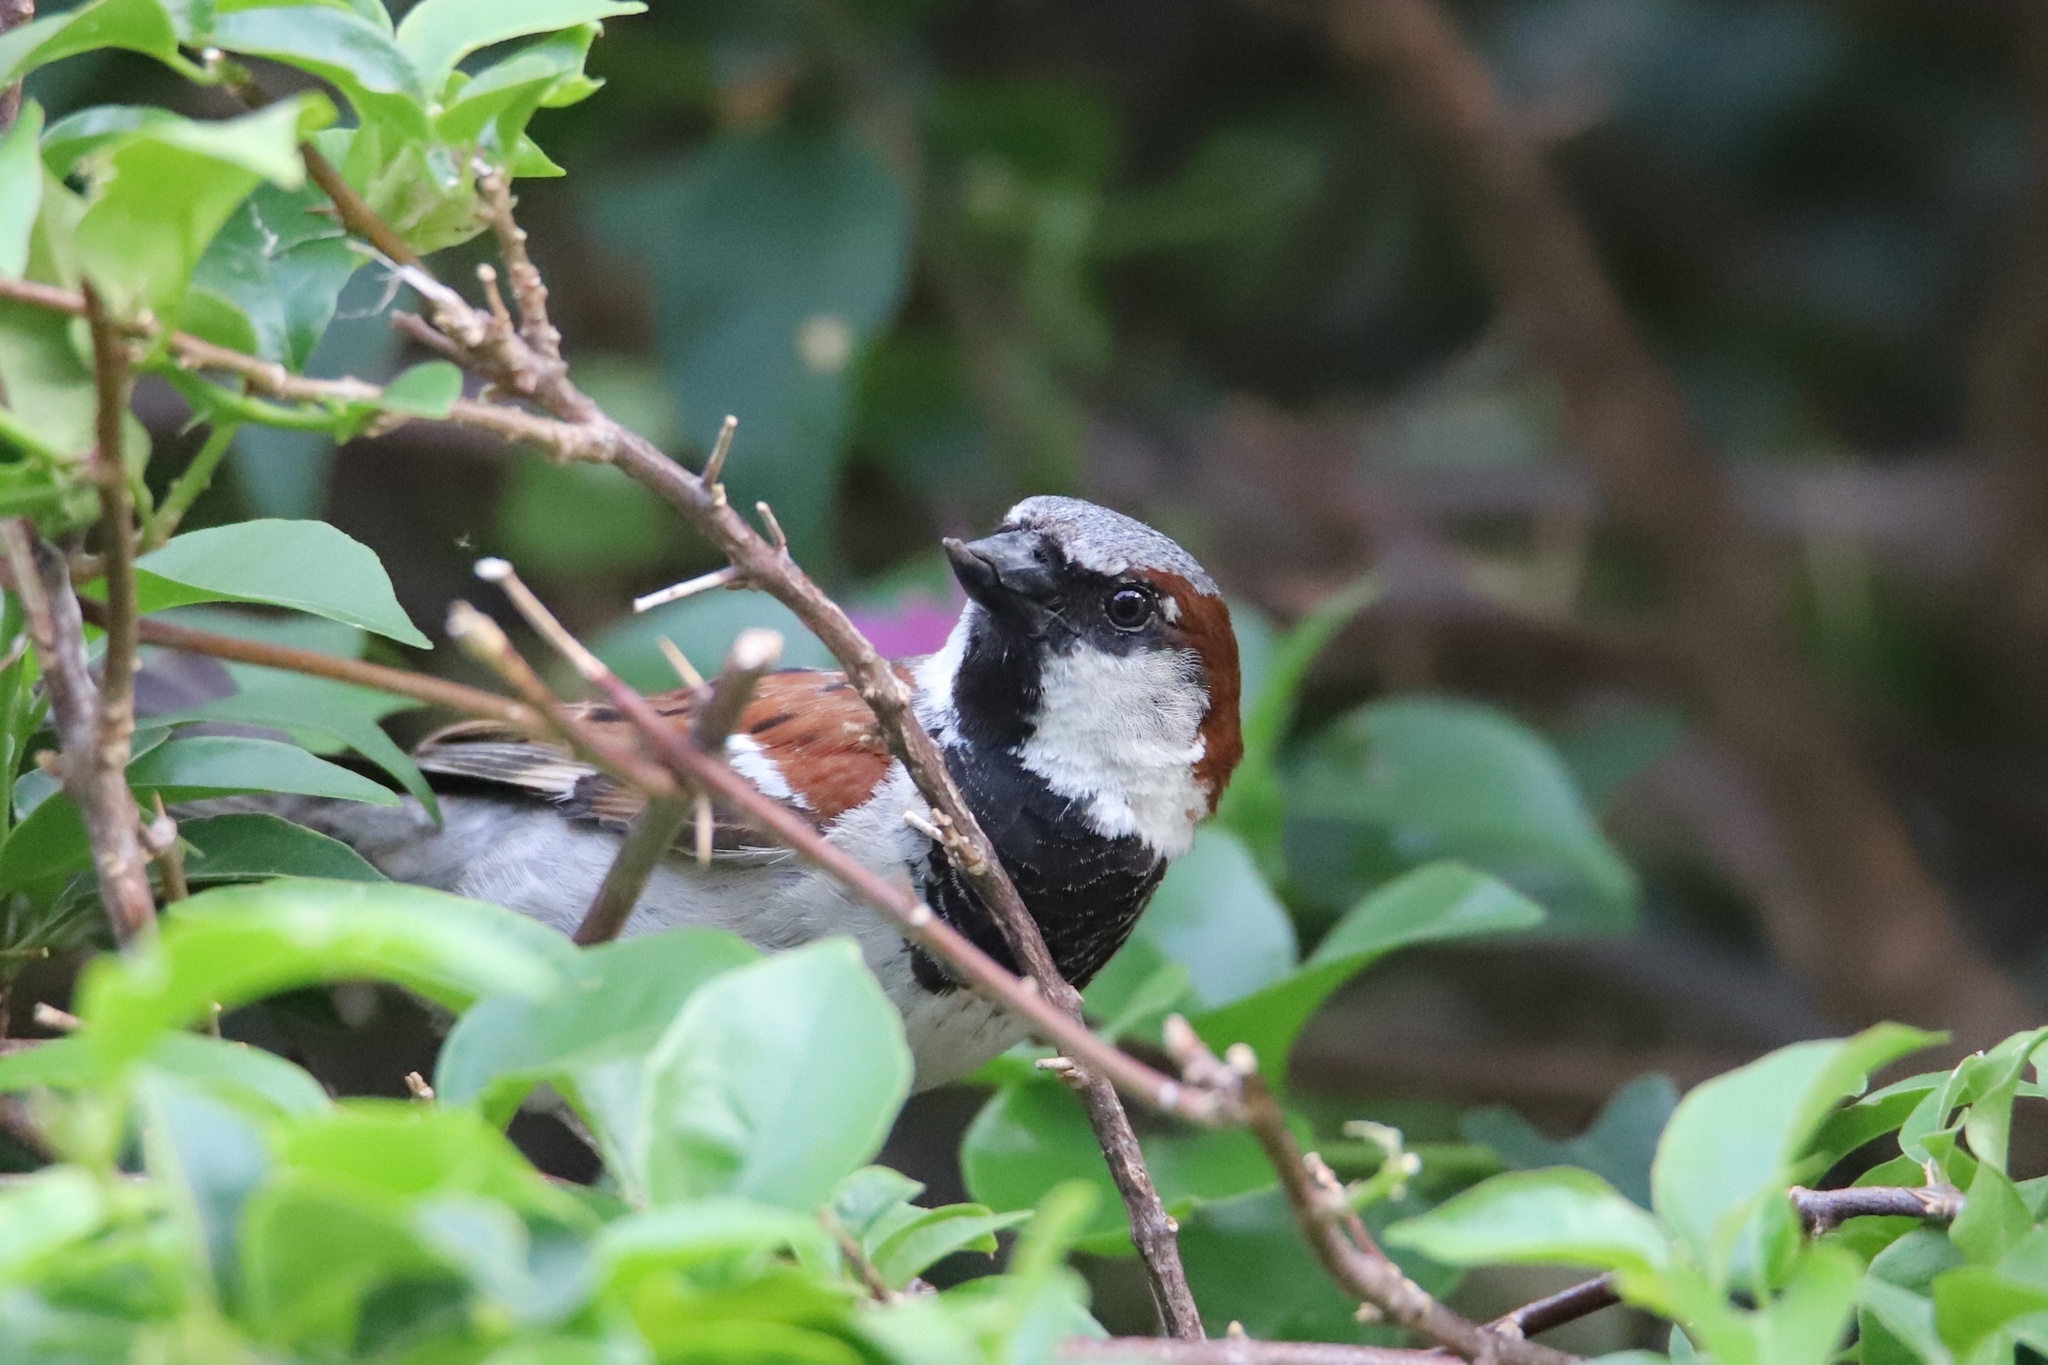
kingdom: Animalia
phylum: Chordata
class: Aves
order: Passeriformes
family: Passeridae
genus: Passer
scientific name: Passer domesticus
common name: House sparrow
